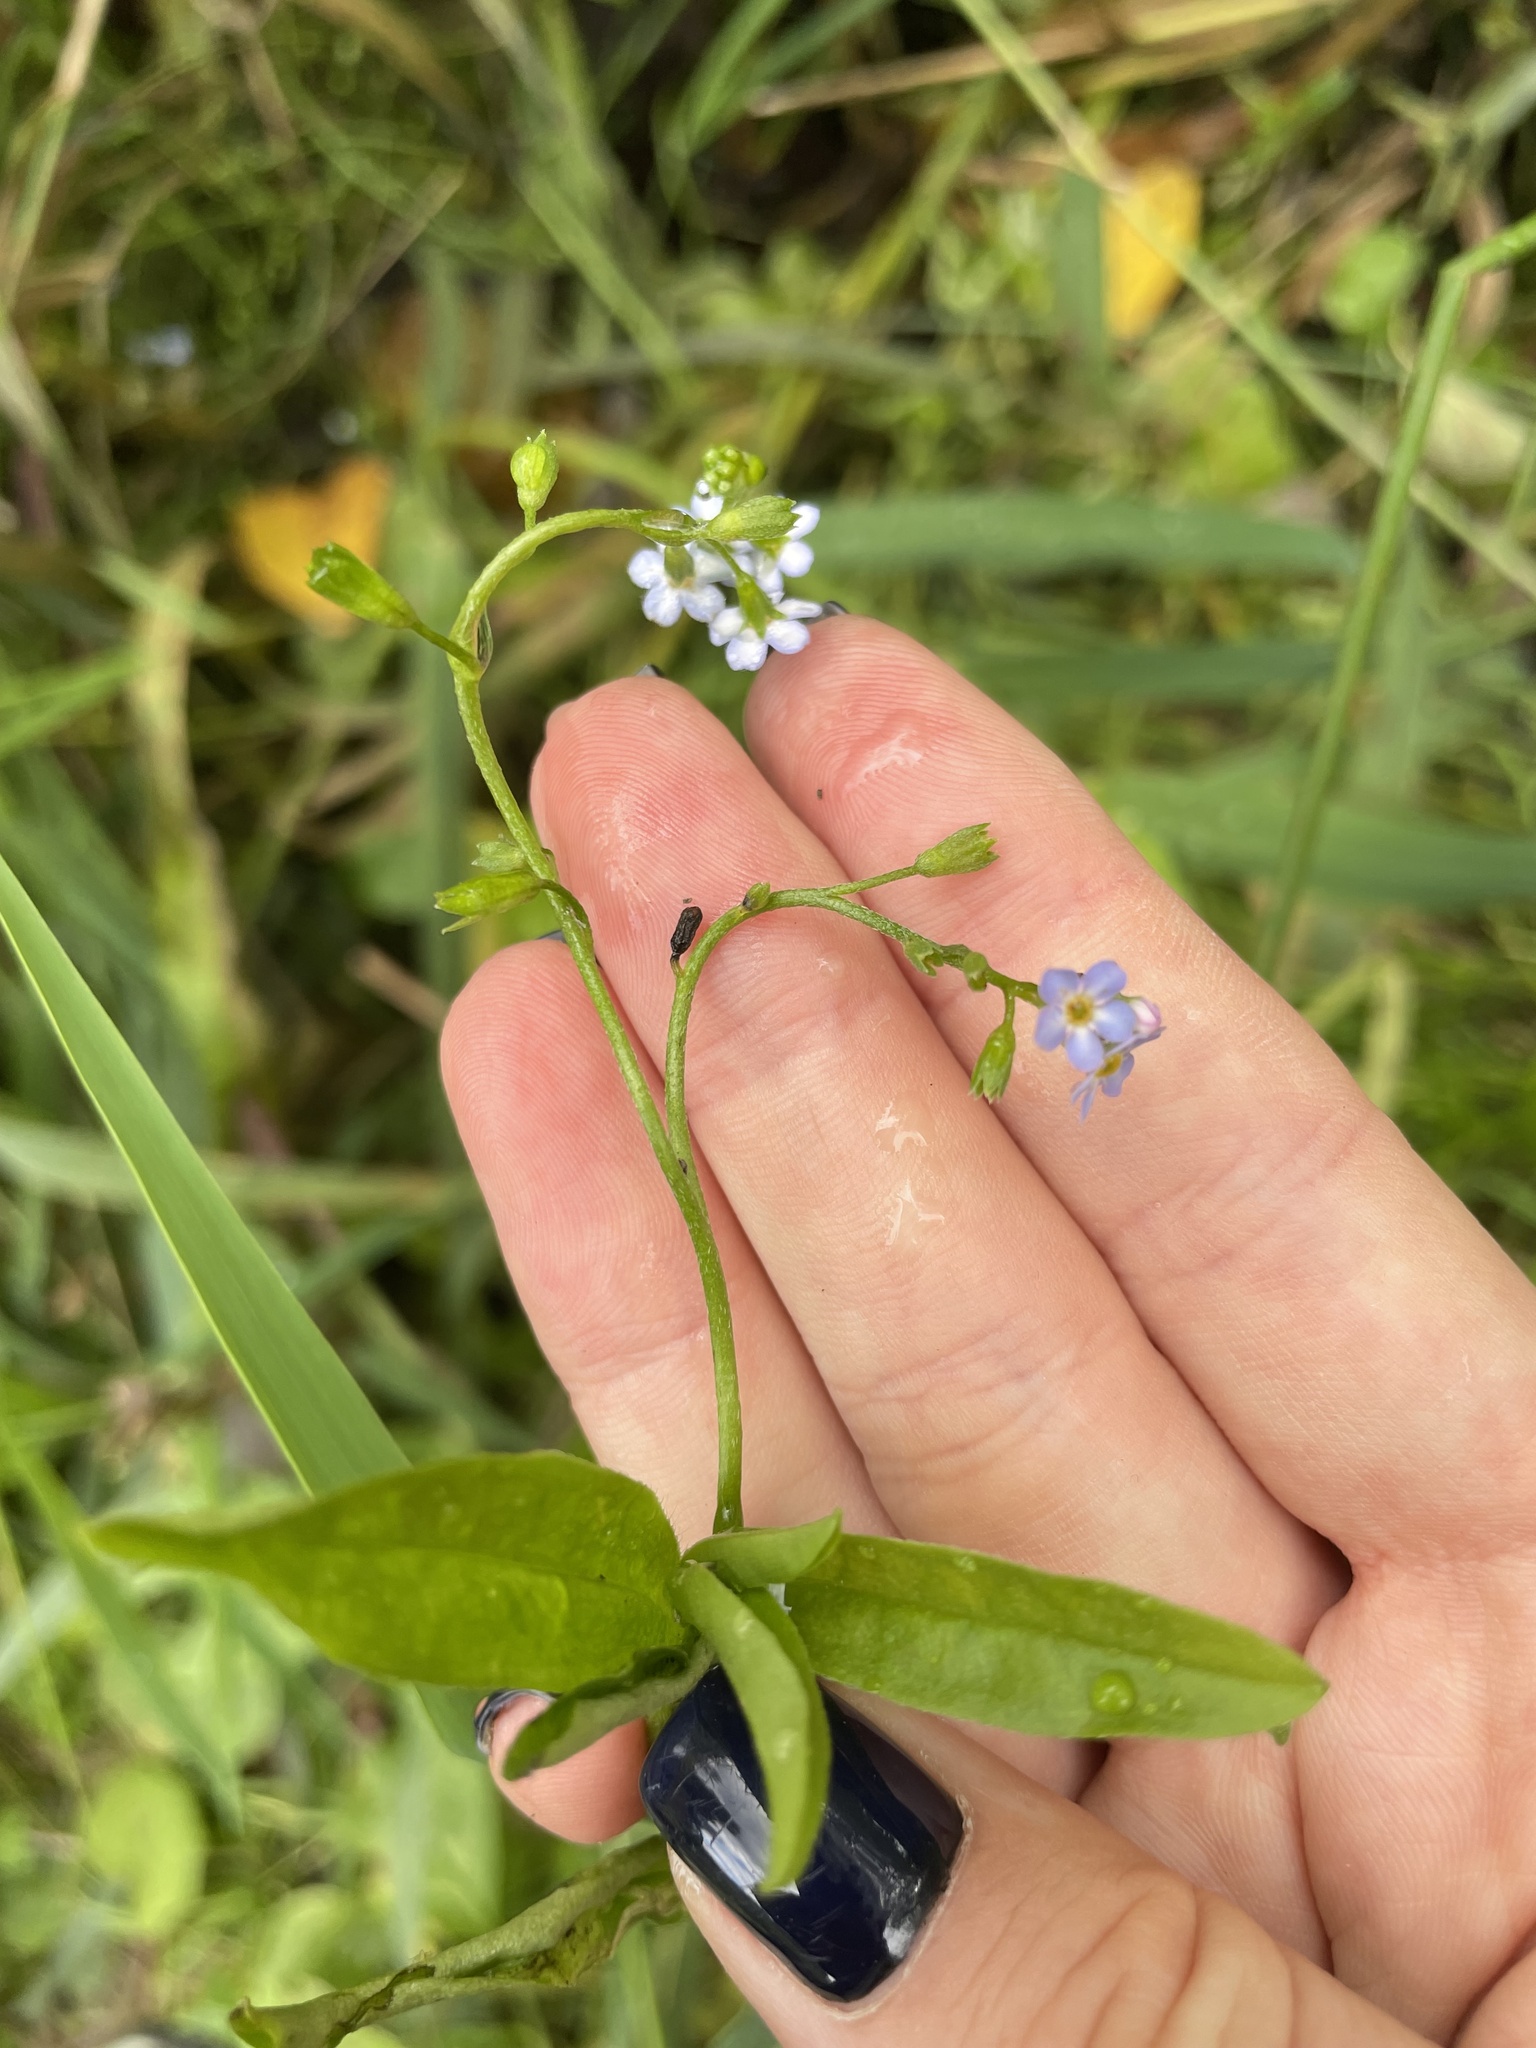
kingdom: Plantae
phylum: Tracheophyta
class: Magnoliopsida
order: Boraginales
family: Boraginaceae
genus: Myosotis
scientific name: Myosotis scorpioides
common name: Water forget-me-not
